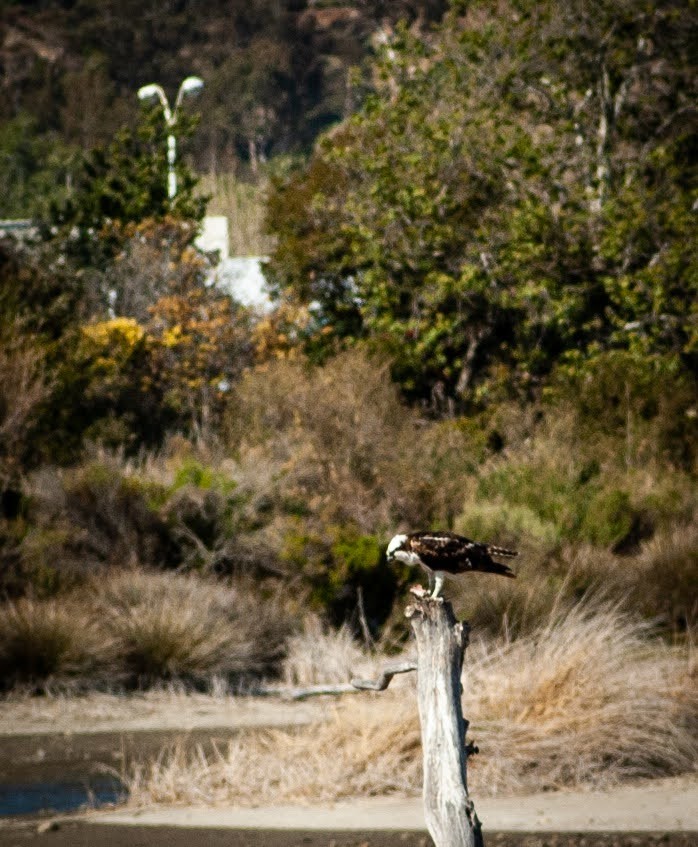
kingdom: Animalia
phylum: Chordata
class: Aves
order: Accipitriformes
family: Pandionidae
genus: Pandion
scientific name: Pandion haliaetus
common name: Osprey
